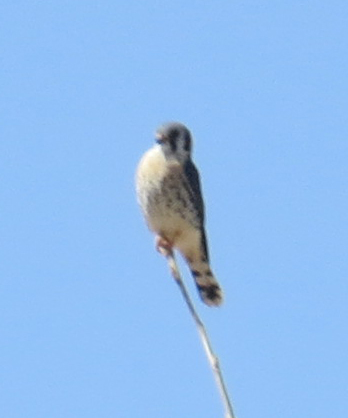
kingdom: Animalia
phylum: Chordata
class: Aves
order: Falconiformes
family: Falconidae
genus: Falco
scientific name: Falco sparverius
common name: American kestrel
